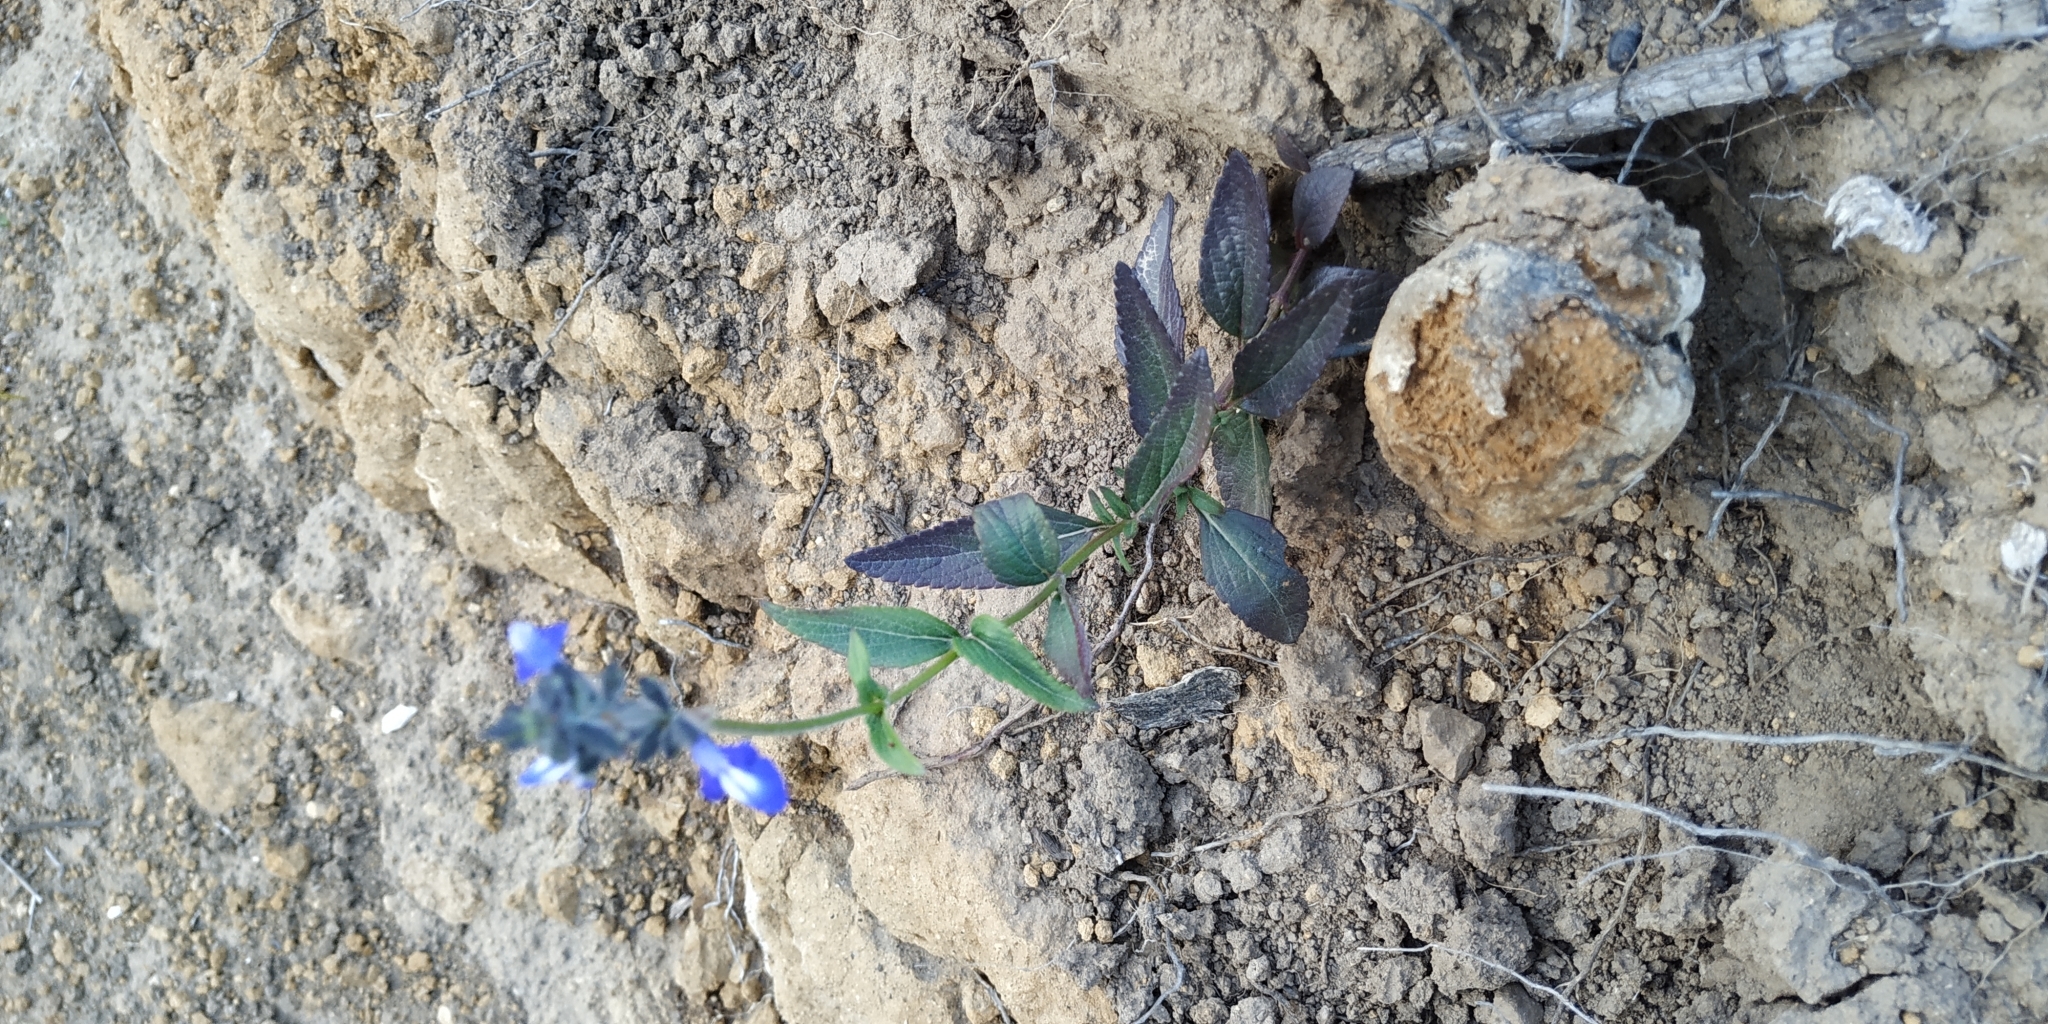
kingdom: Plantae
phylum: Tracheophyta
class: Magnoliopsida
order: Lamiales
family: Lamiaceae
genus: Salvia
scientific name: Salvia prunelloides
